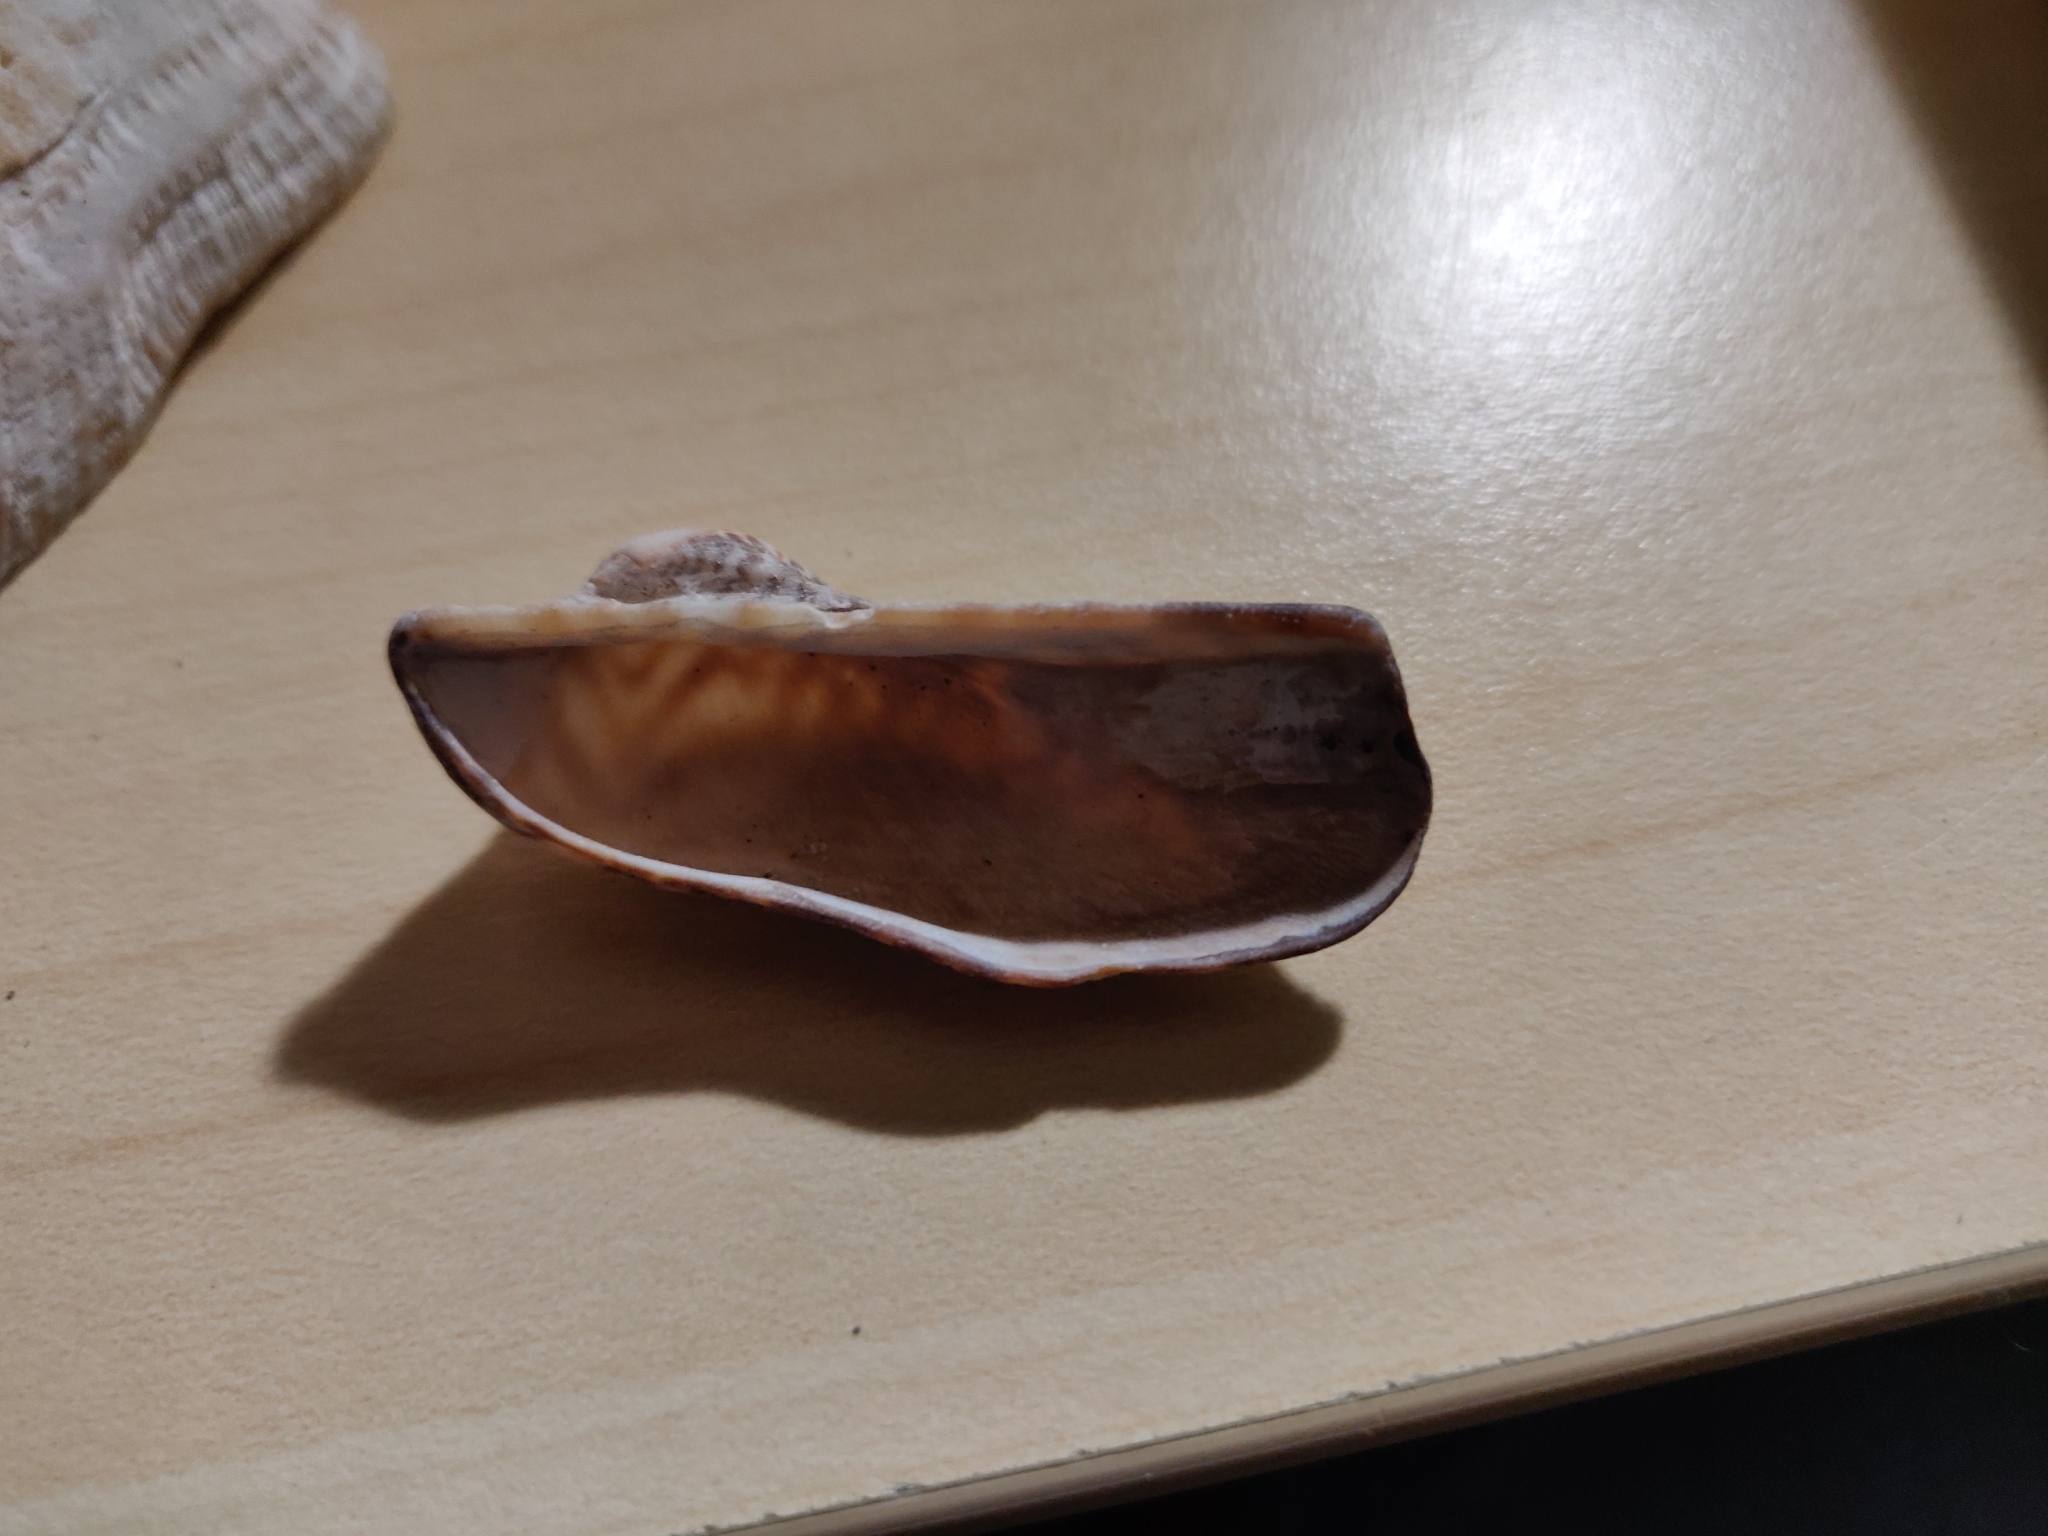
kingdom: Animalia
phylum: Mollusca
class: Bivalvia
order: Arcida
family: Arcidae
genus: Arca
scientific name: Arca noae
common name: Noah's arch
